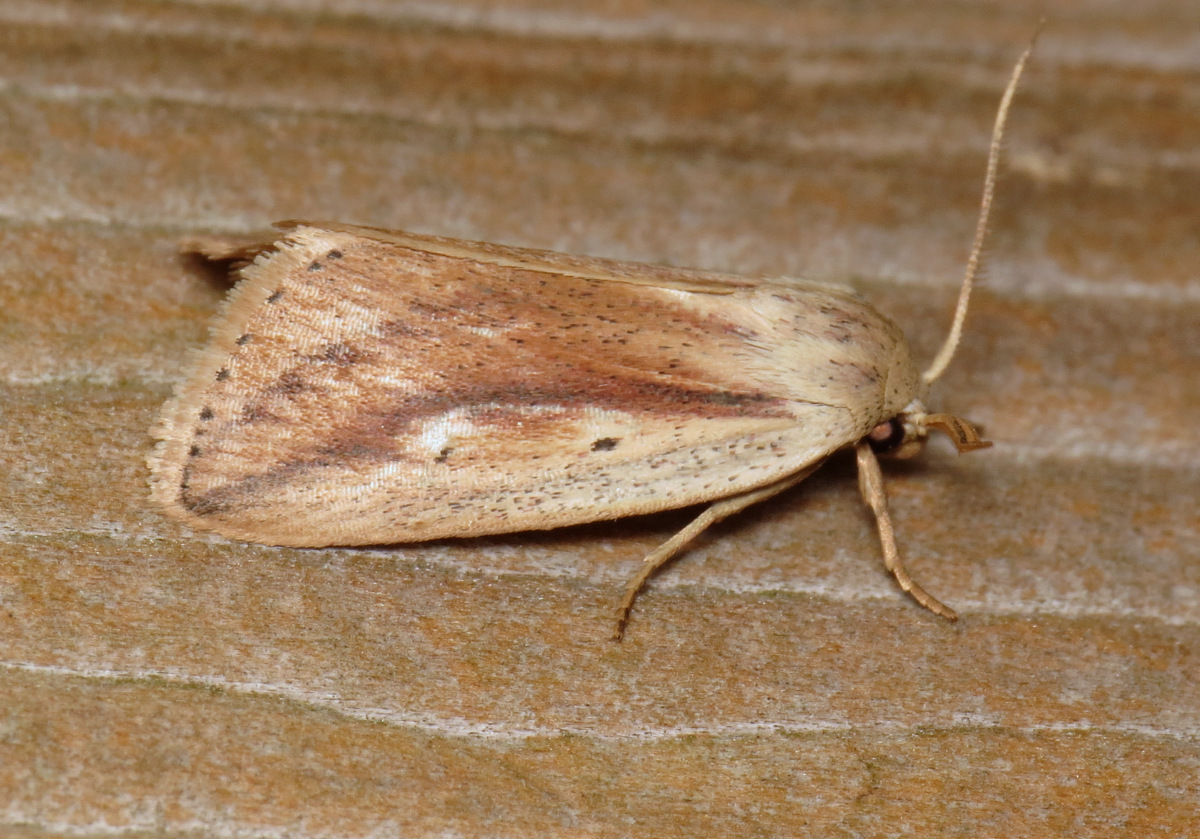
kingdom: Animalia
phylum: Arthropoda
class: Insecta
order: Lepidoptera
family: Noctuidae
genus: Amolita
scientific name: Amolita fessa
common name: Feeble grass moth
